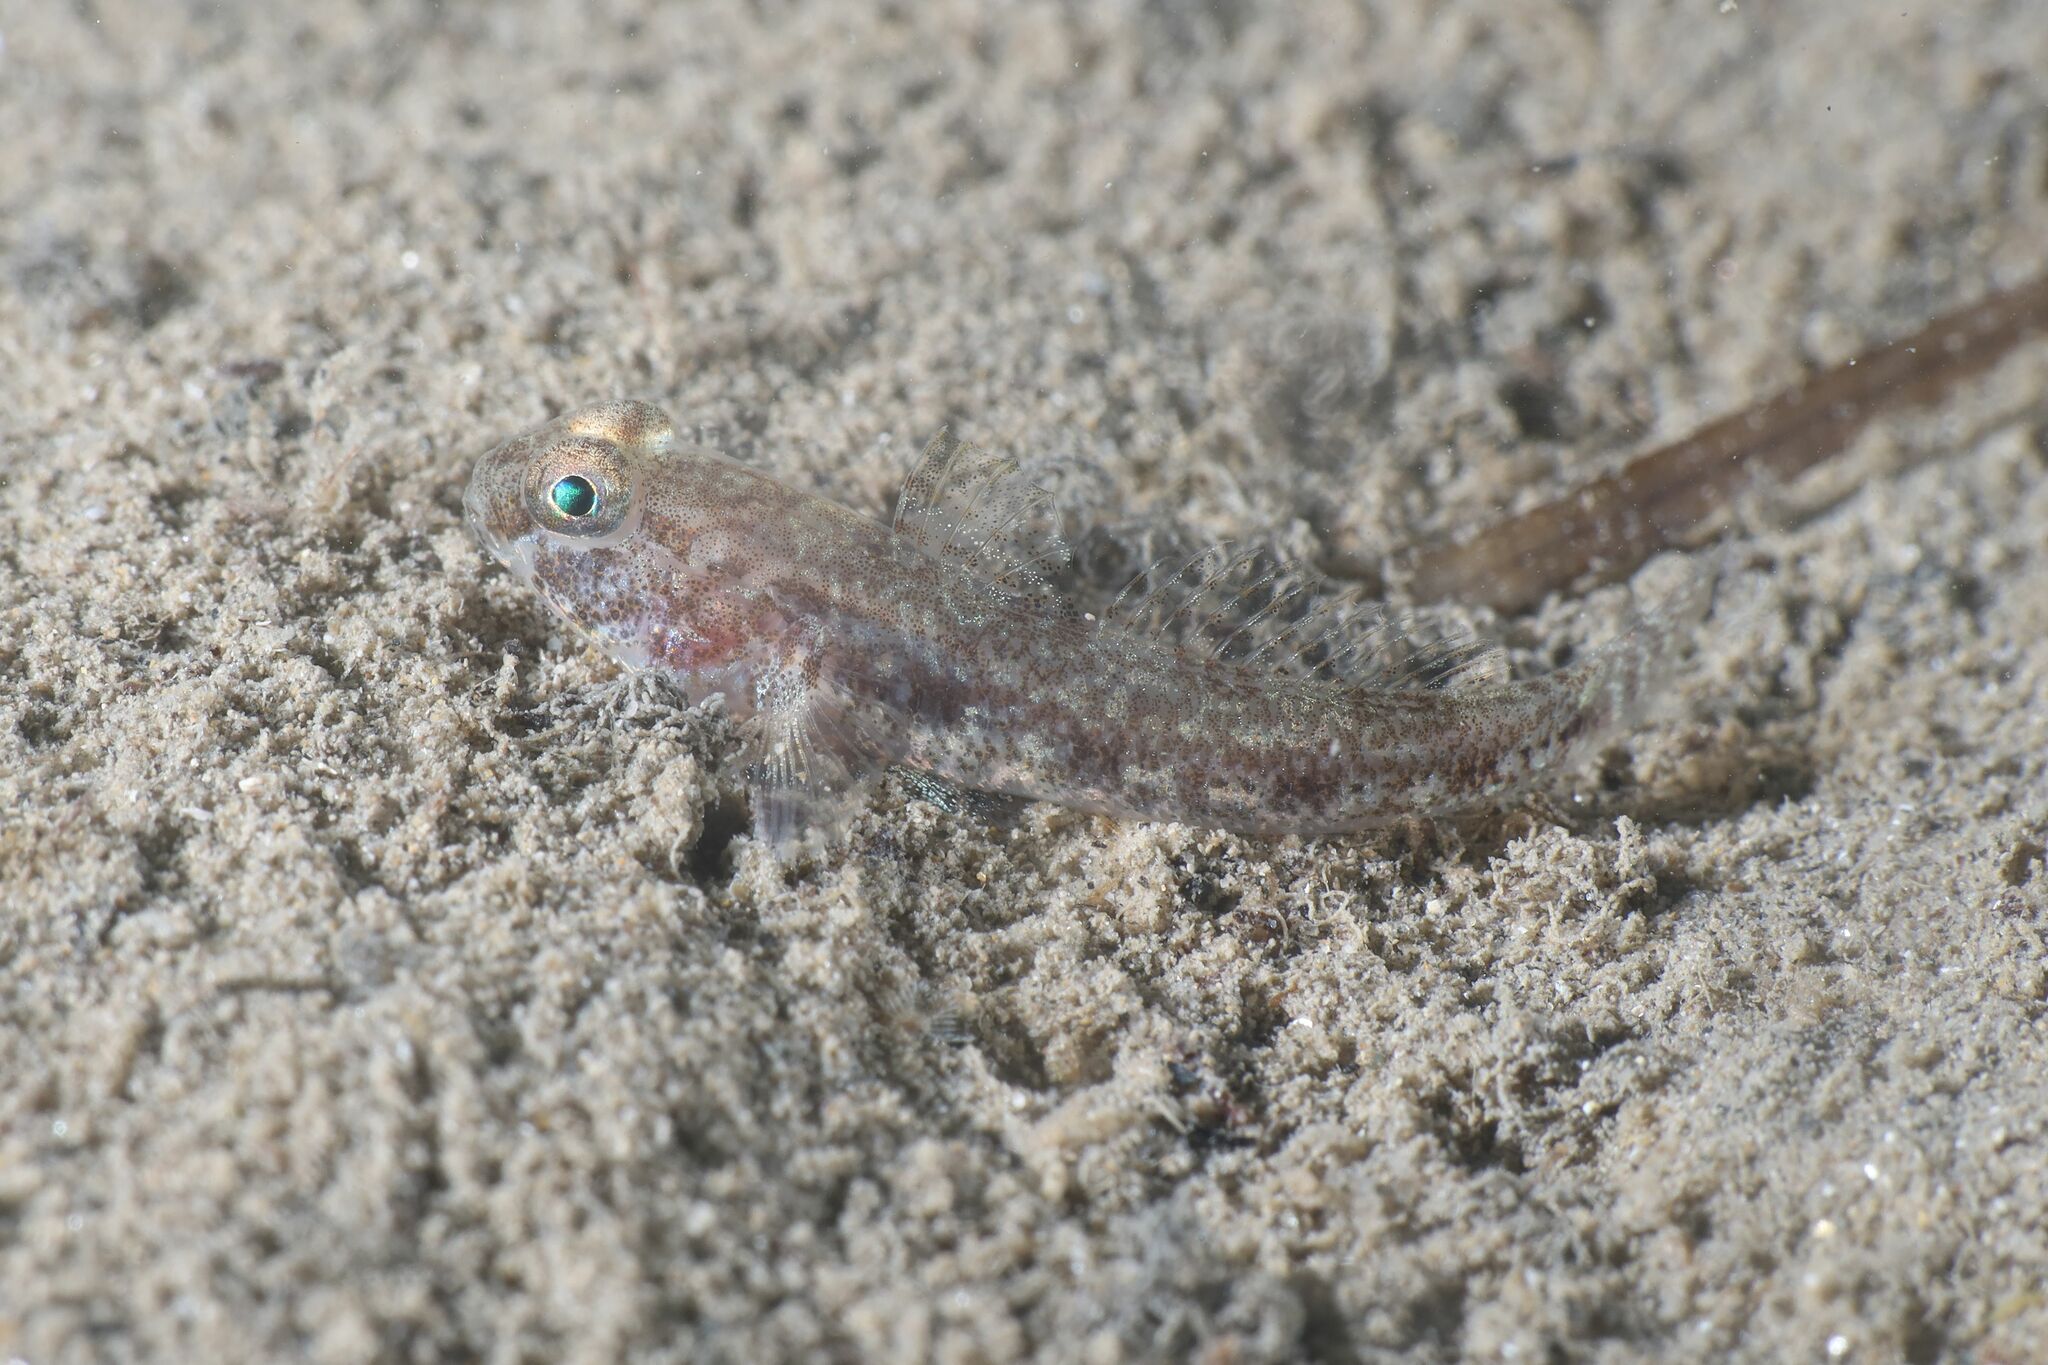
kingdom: Animalia
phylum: Chordata
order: Perciformes
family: Gobiidae
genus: Gobius
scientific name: Gobius niger
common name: Black goby
